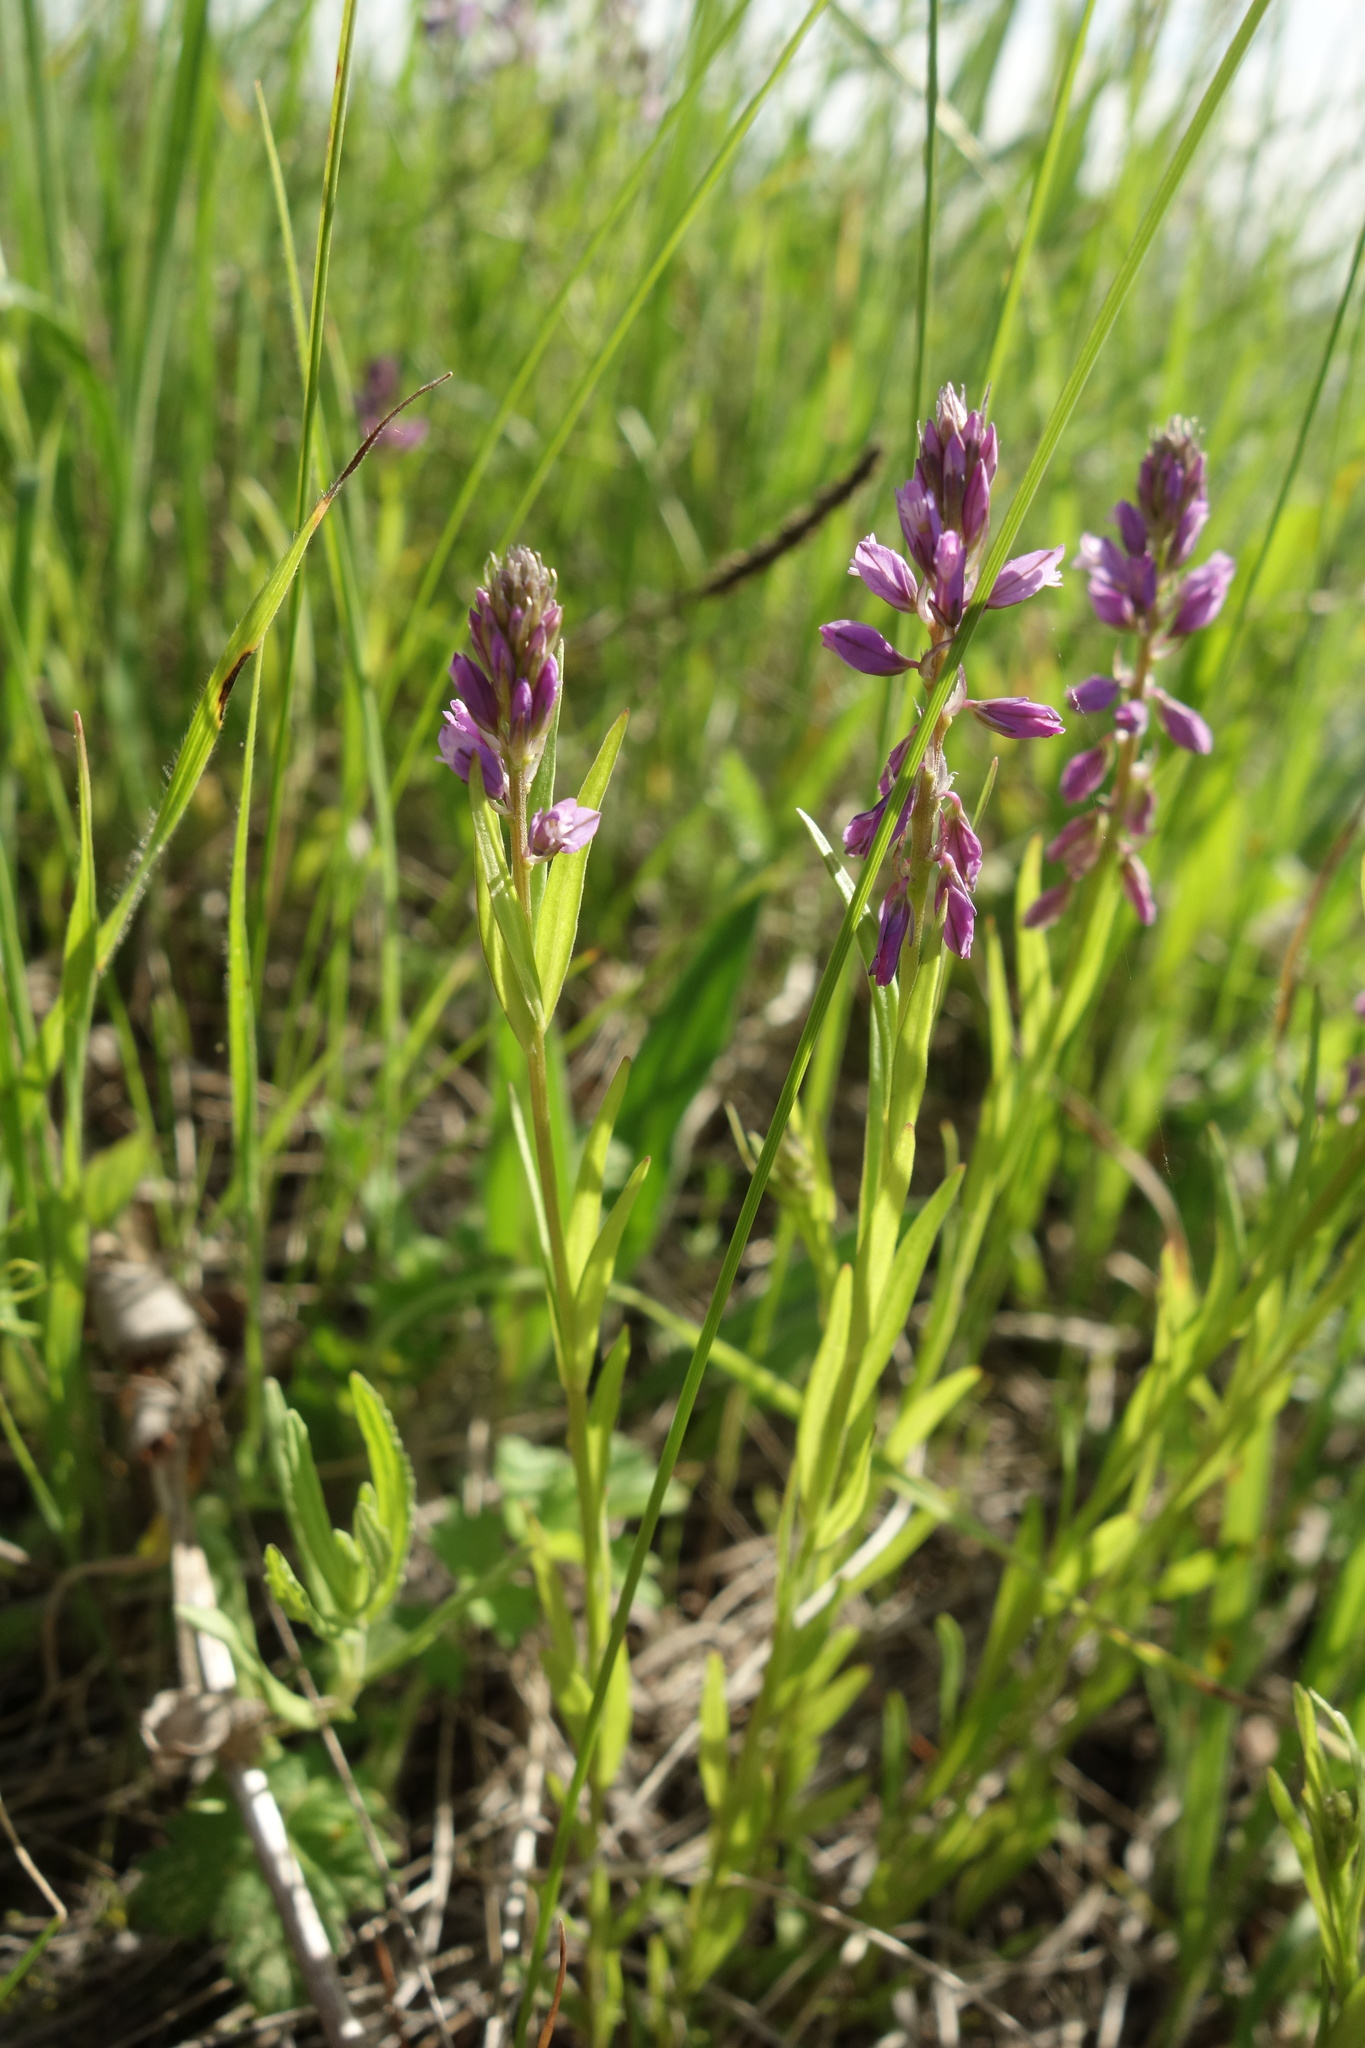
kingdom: Plantae
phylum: Tracheophyta
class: Magnoliopsida
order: Fabales
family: Polygalaceae
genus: Polygala
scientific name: Polygala comosa
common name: Tufted milkwort
